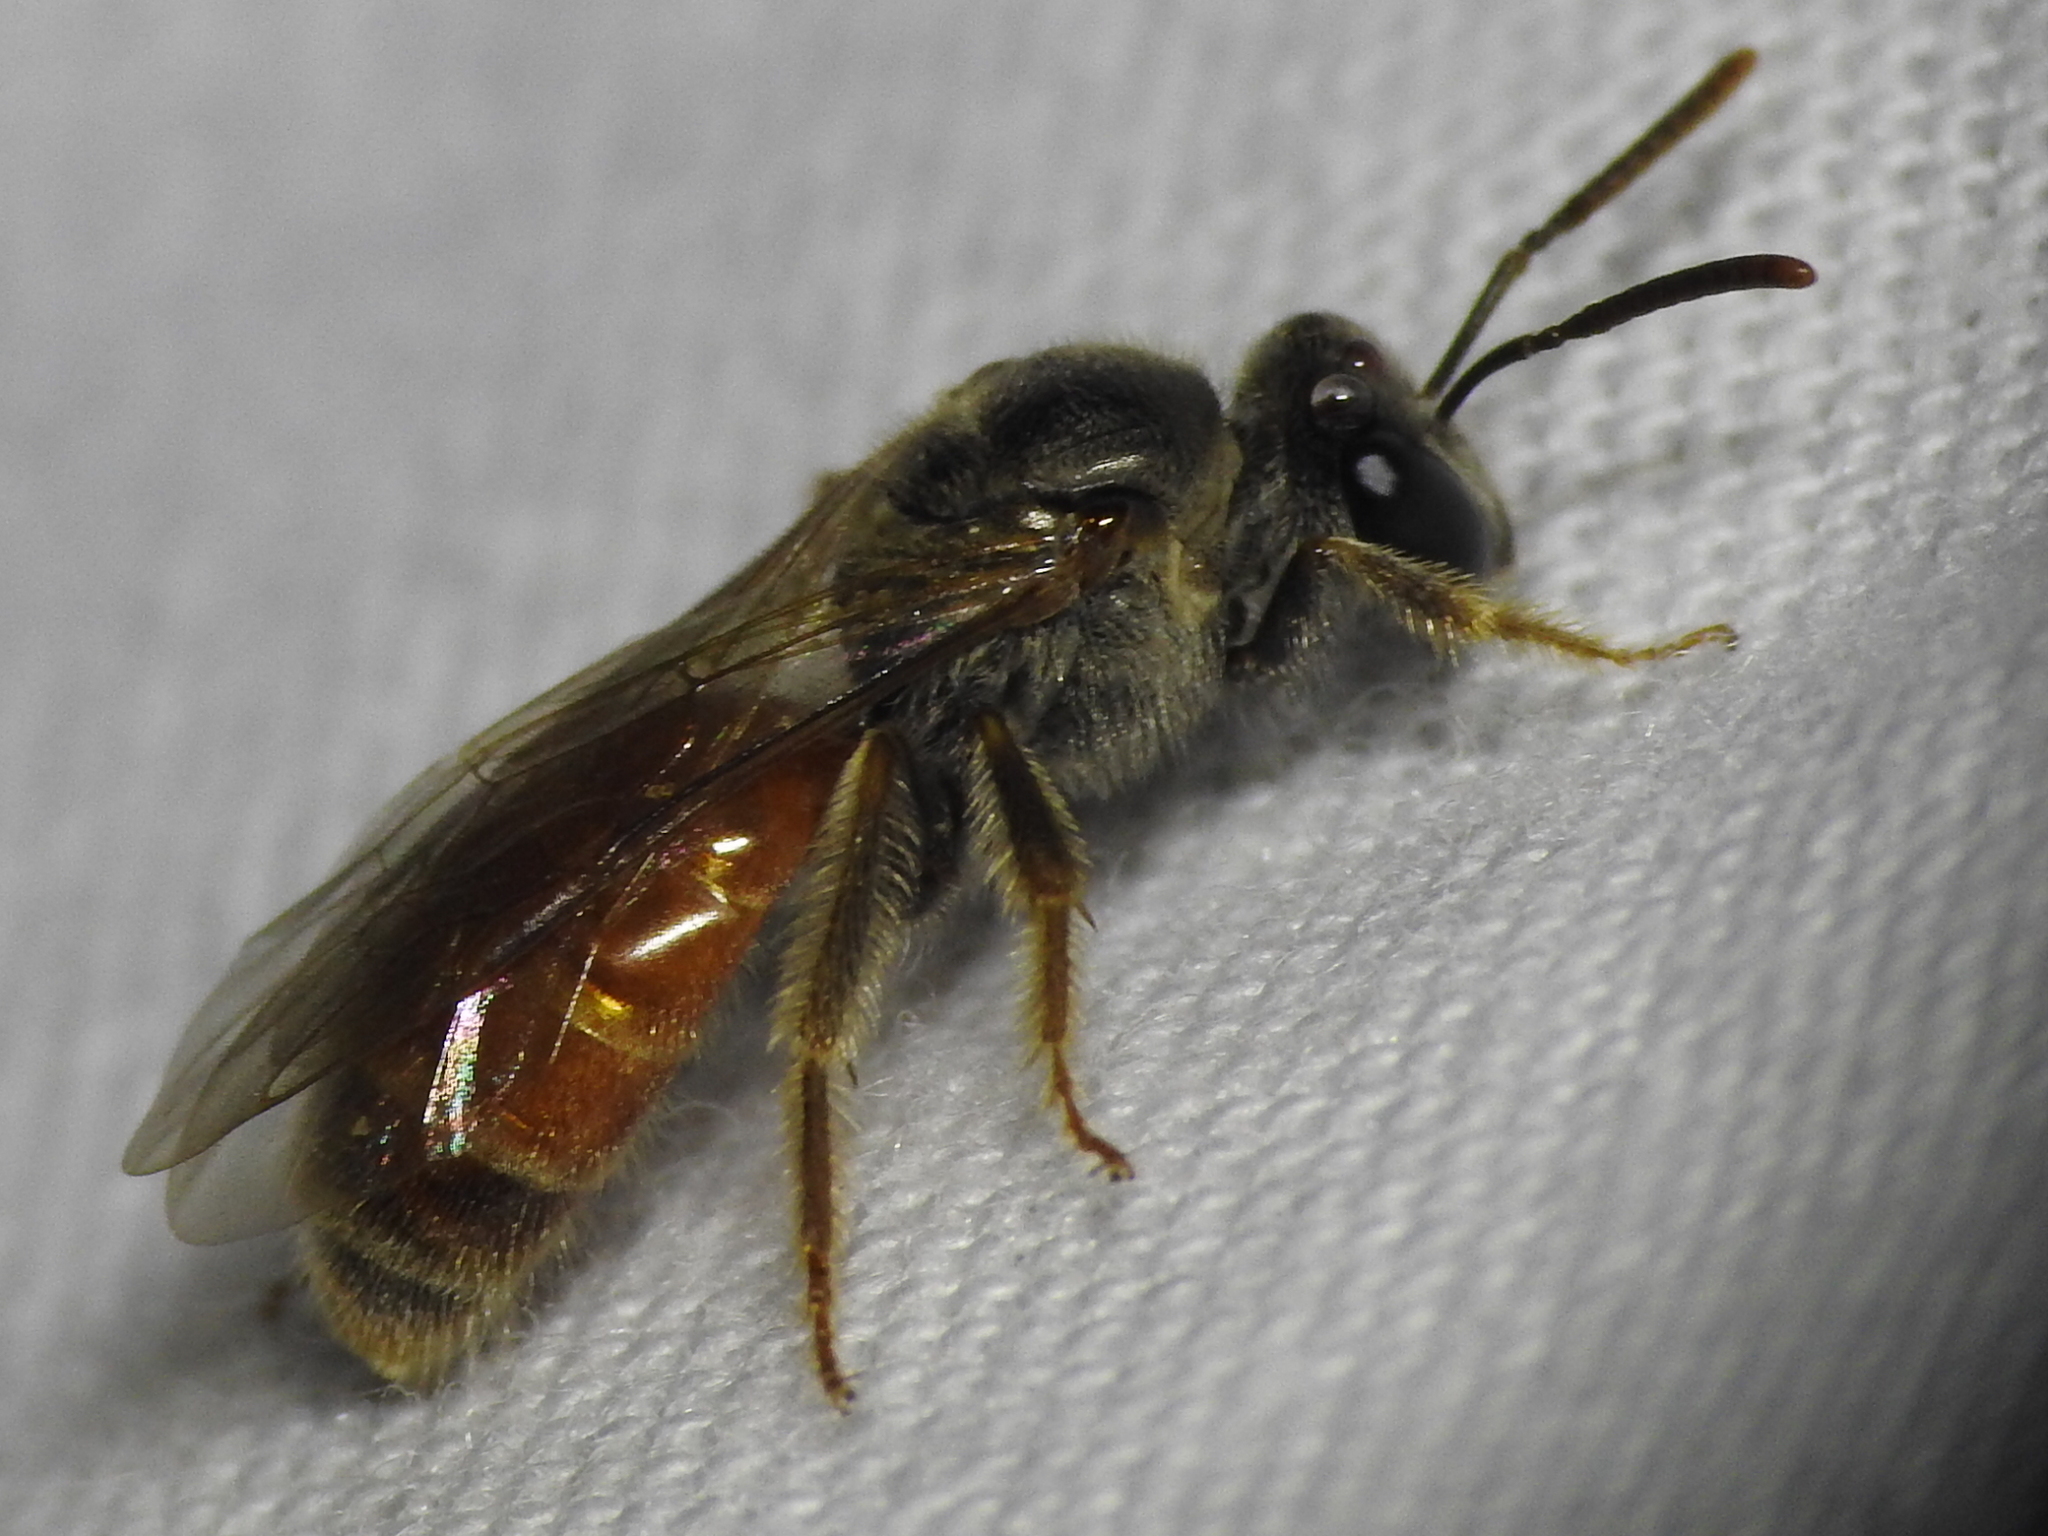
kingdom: Animalia
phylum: Arthropoda
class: Insecta
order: Hymenoptera
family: Halictidae
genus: Lasioglossum
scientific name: Lasioglossum texanum
